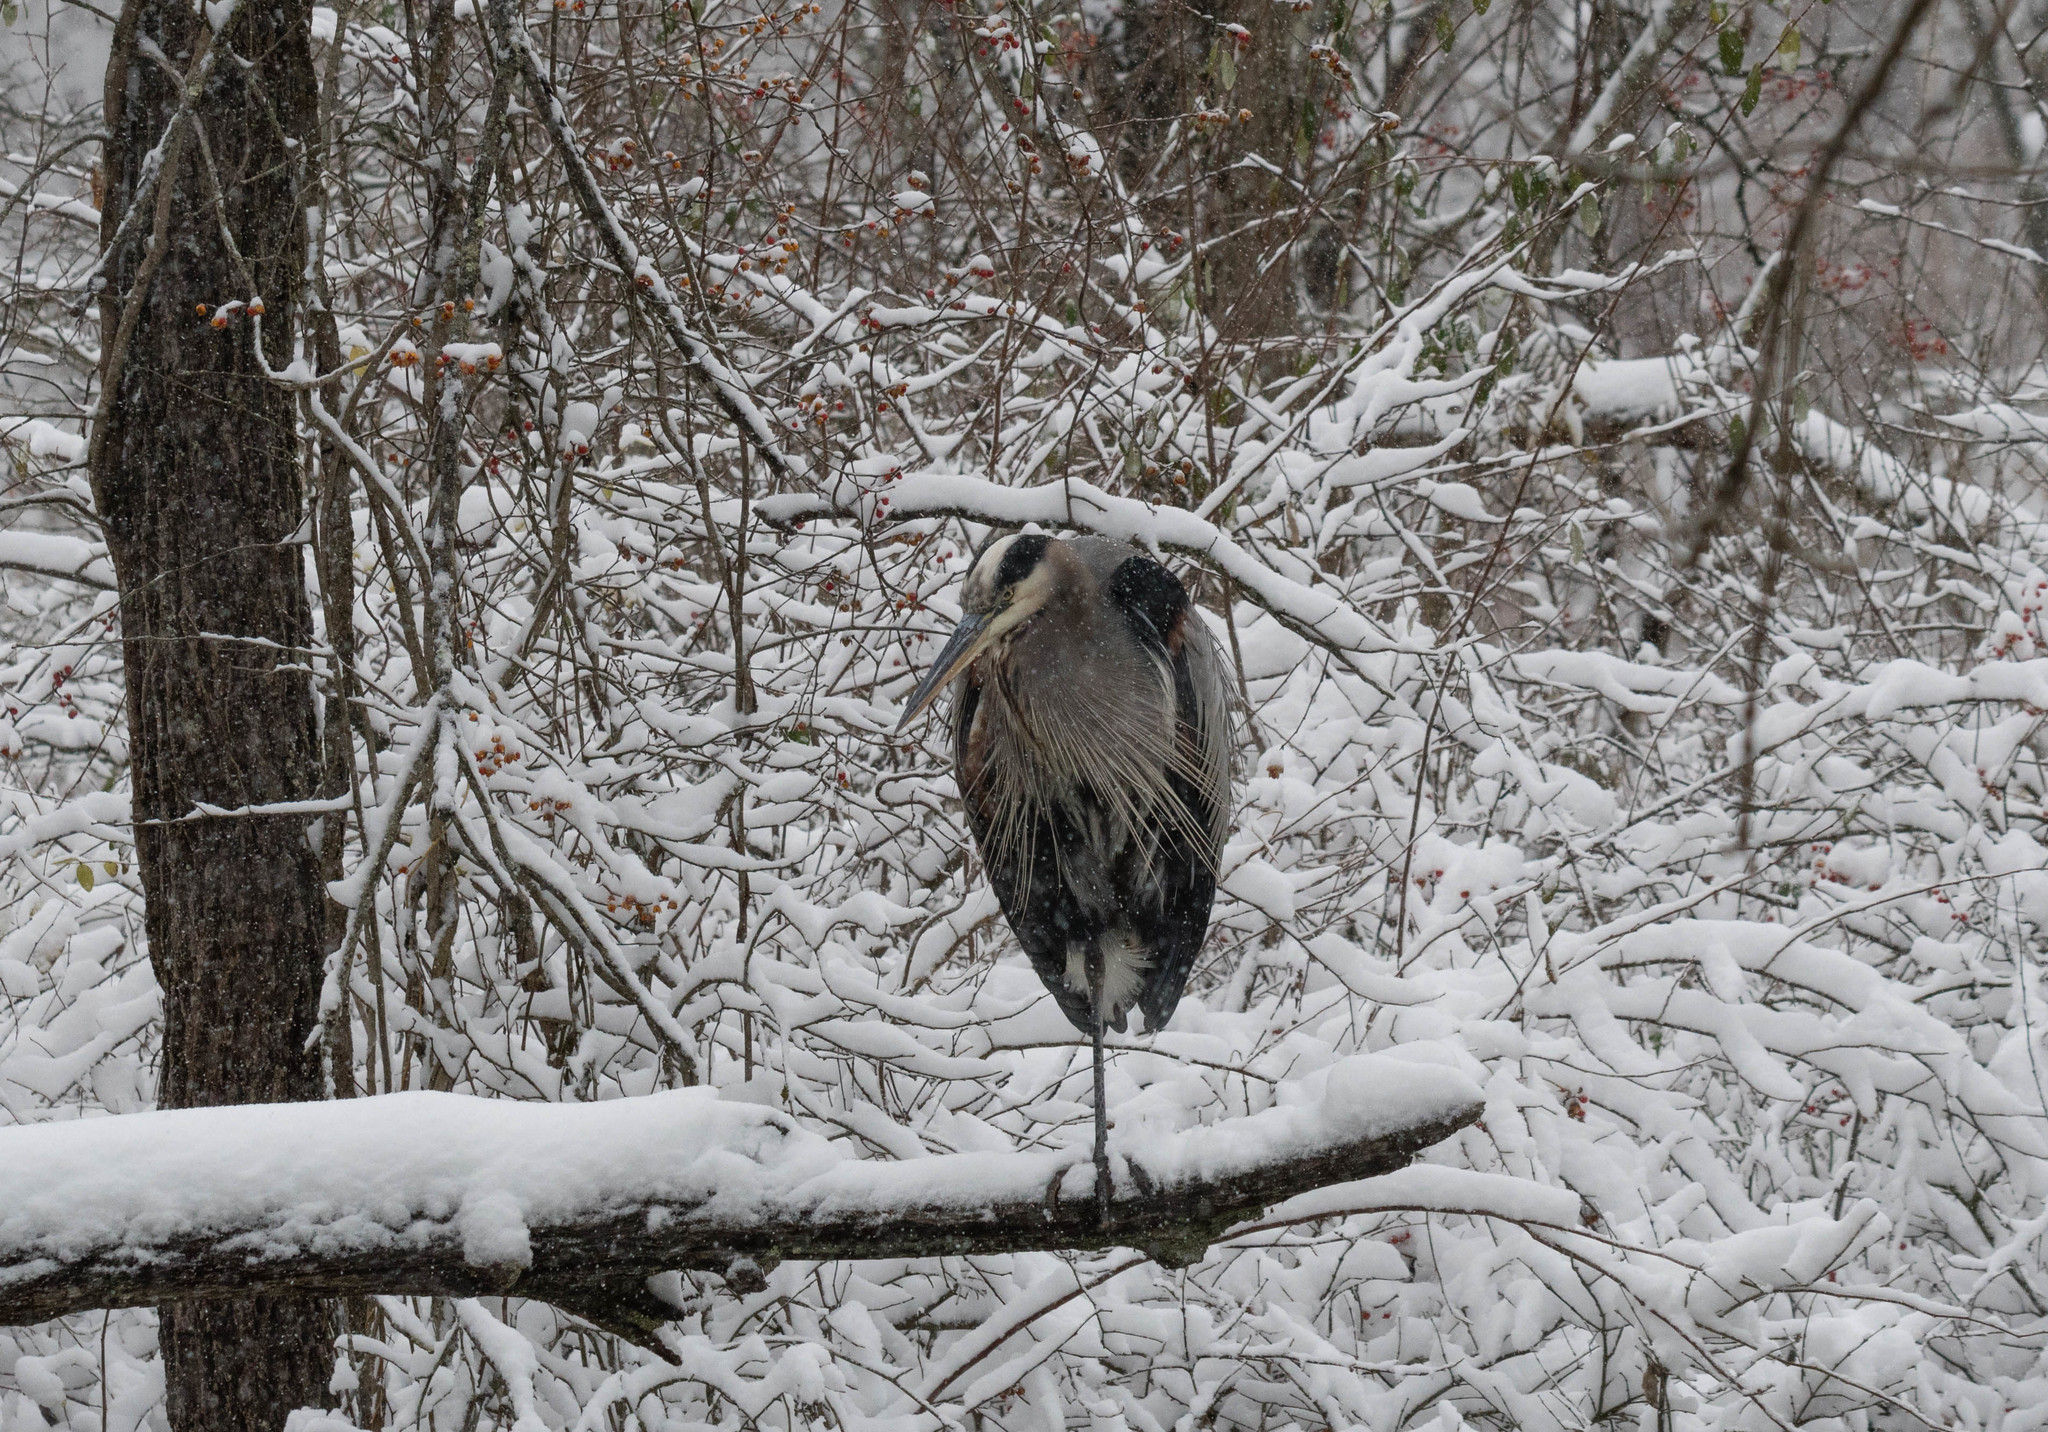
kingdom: Animalia
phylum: Chordata
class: Aves
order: Pelecaniformes
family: Ardeidae
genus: Ardea
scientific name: Ardea herodias
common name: Great blue heron
